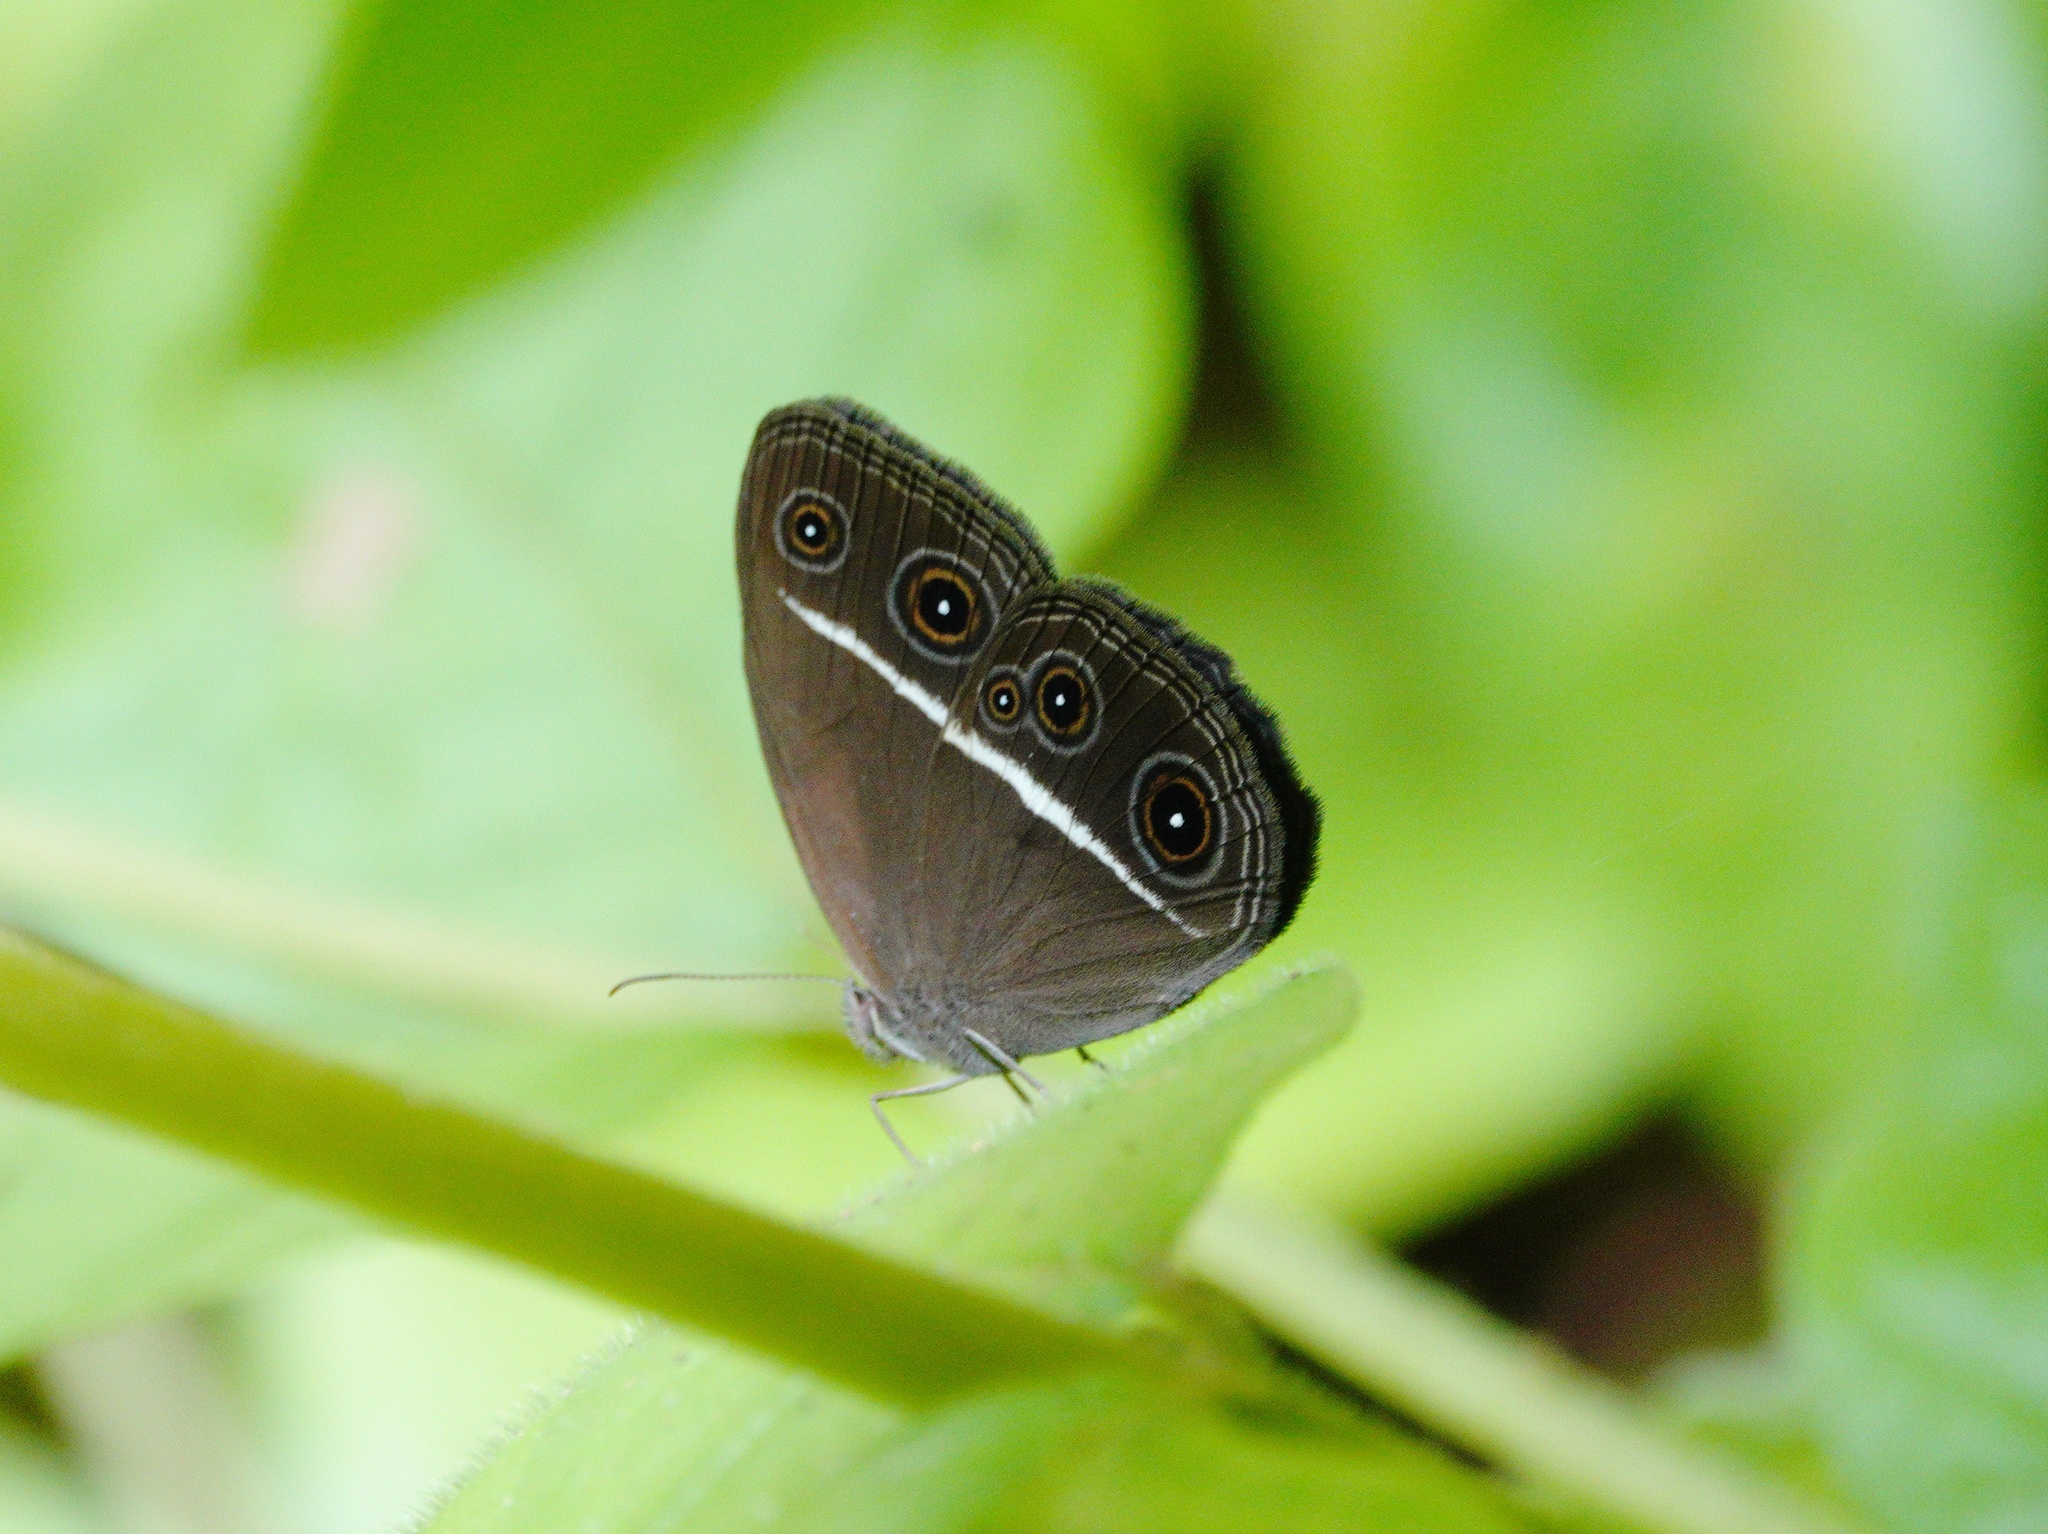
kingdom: Animalia
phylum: Arthropoda
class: Insecta
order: Lepidoptera
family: Nymphalidae
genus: Orsotriaena
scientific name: Orsotriaena medus
